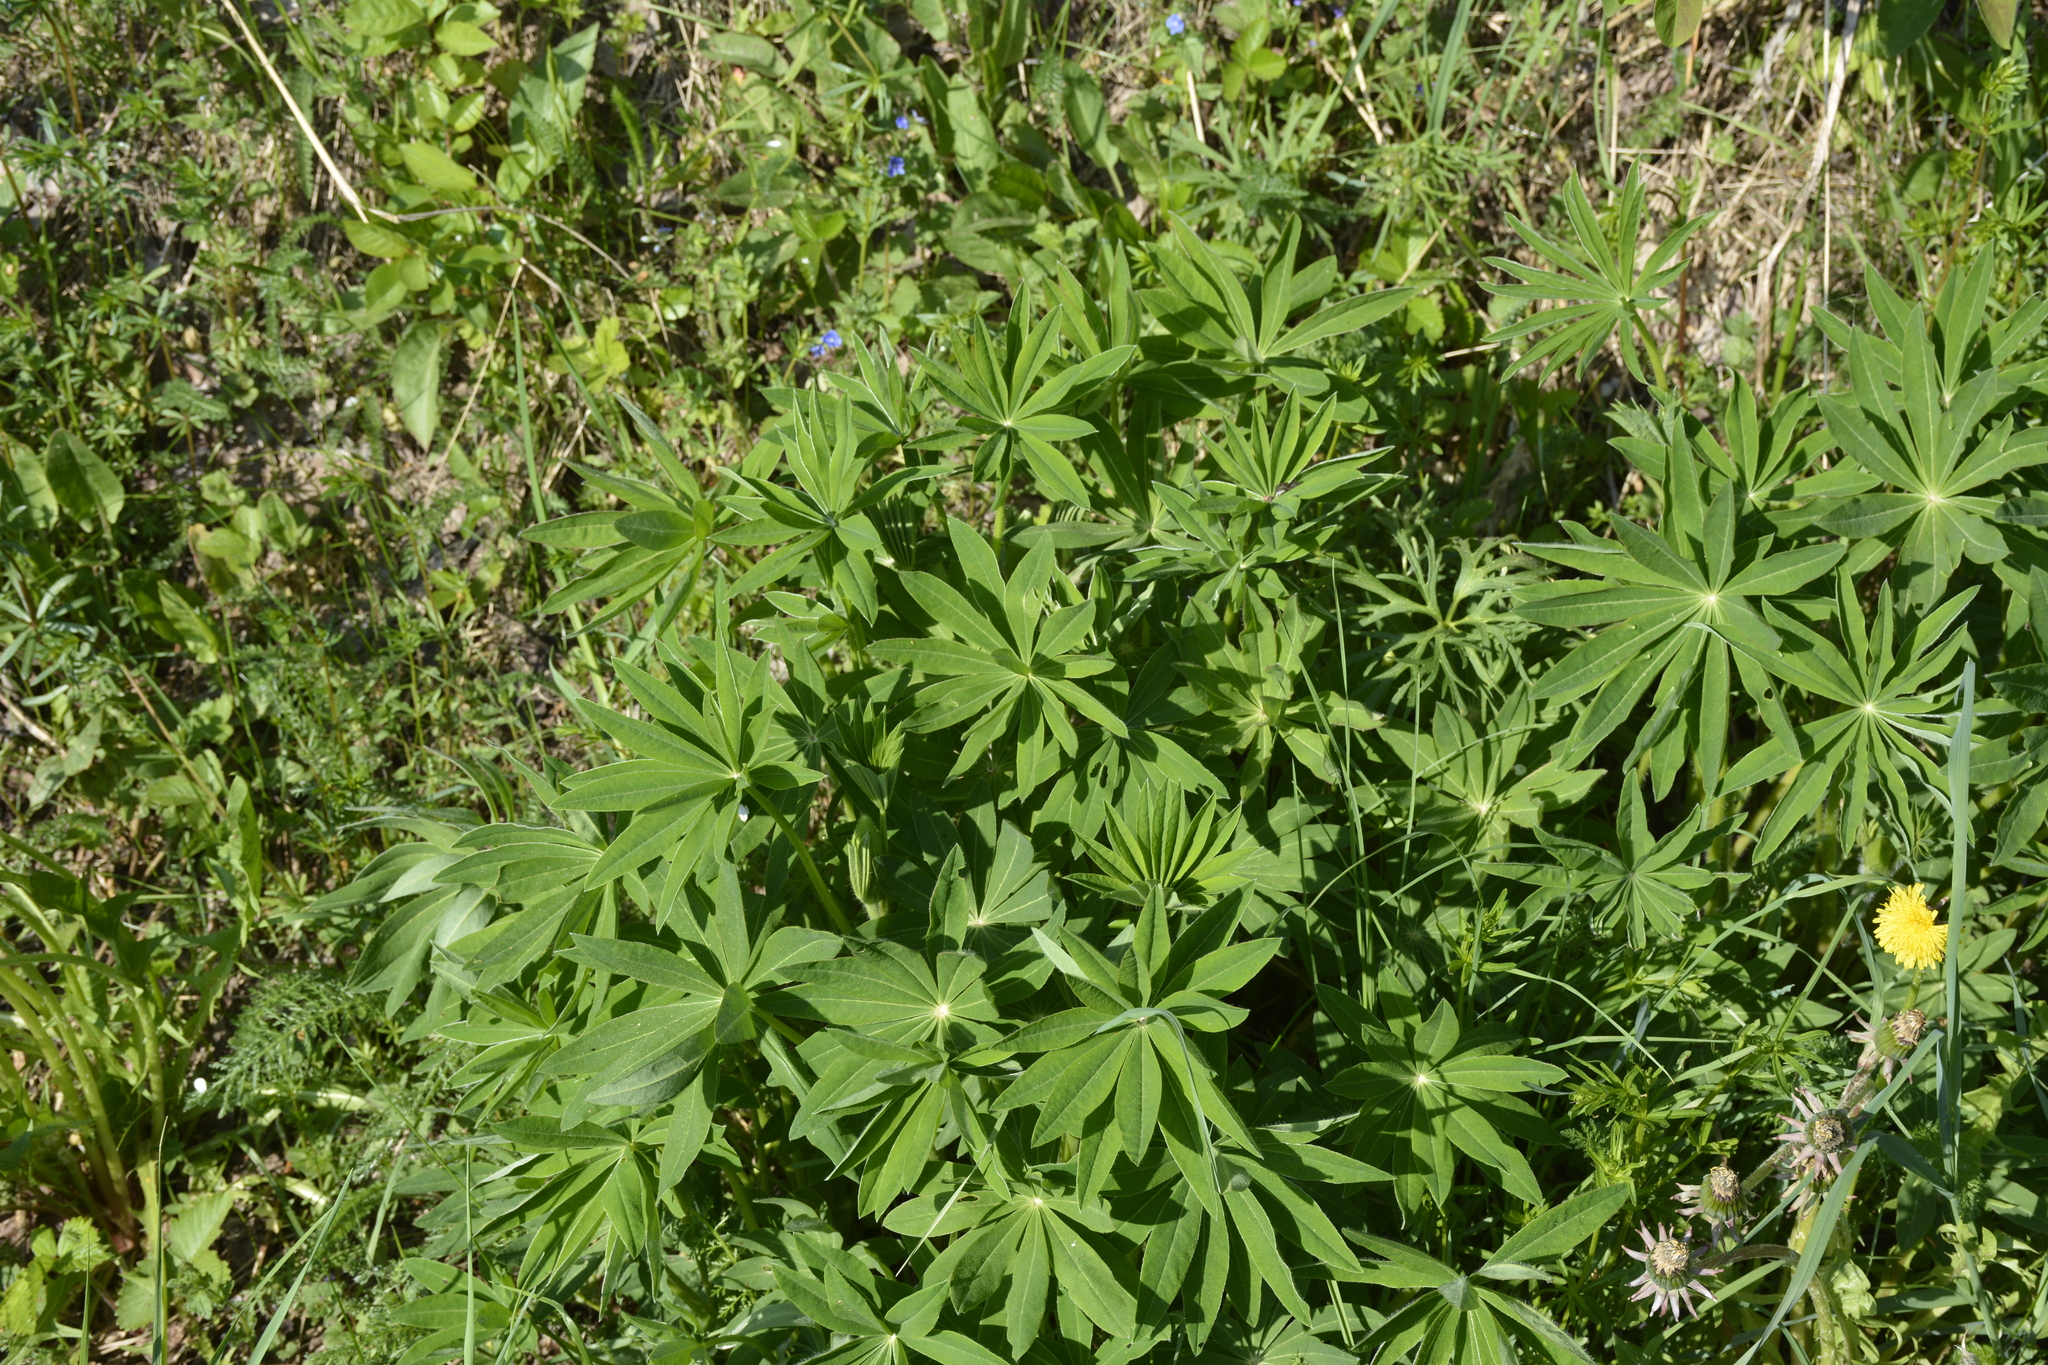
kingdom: Plantae
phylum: Tracheophyta
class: Magnoliopsida
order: Fabales
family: Fabaceae
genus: Lupinus
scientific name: Lupinus polyphyllus
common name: Garden lupin
